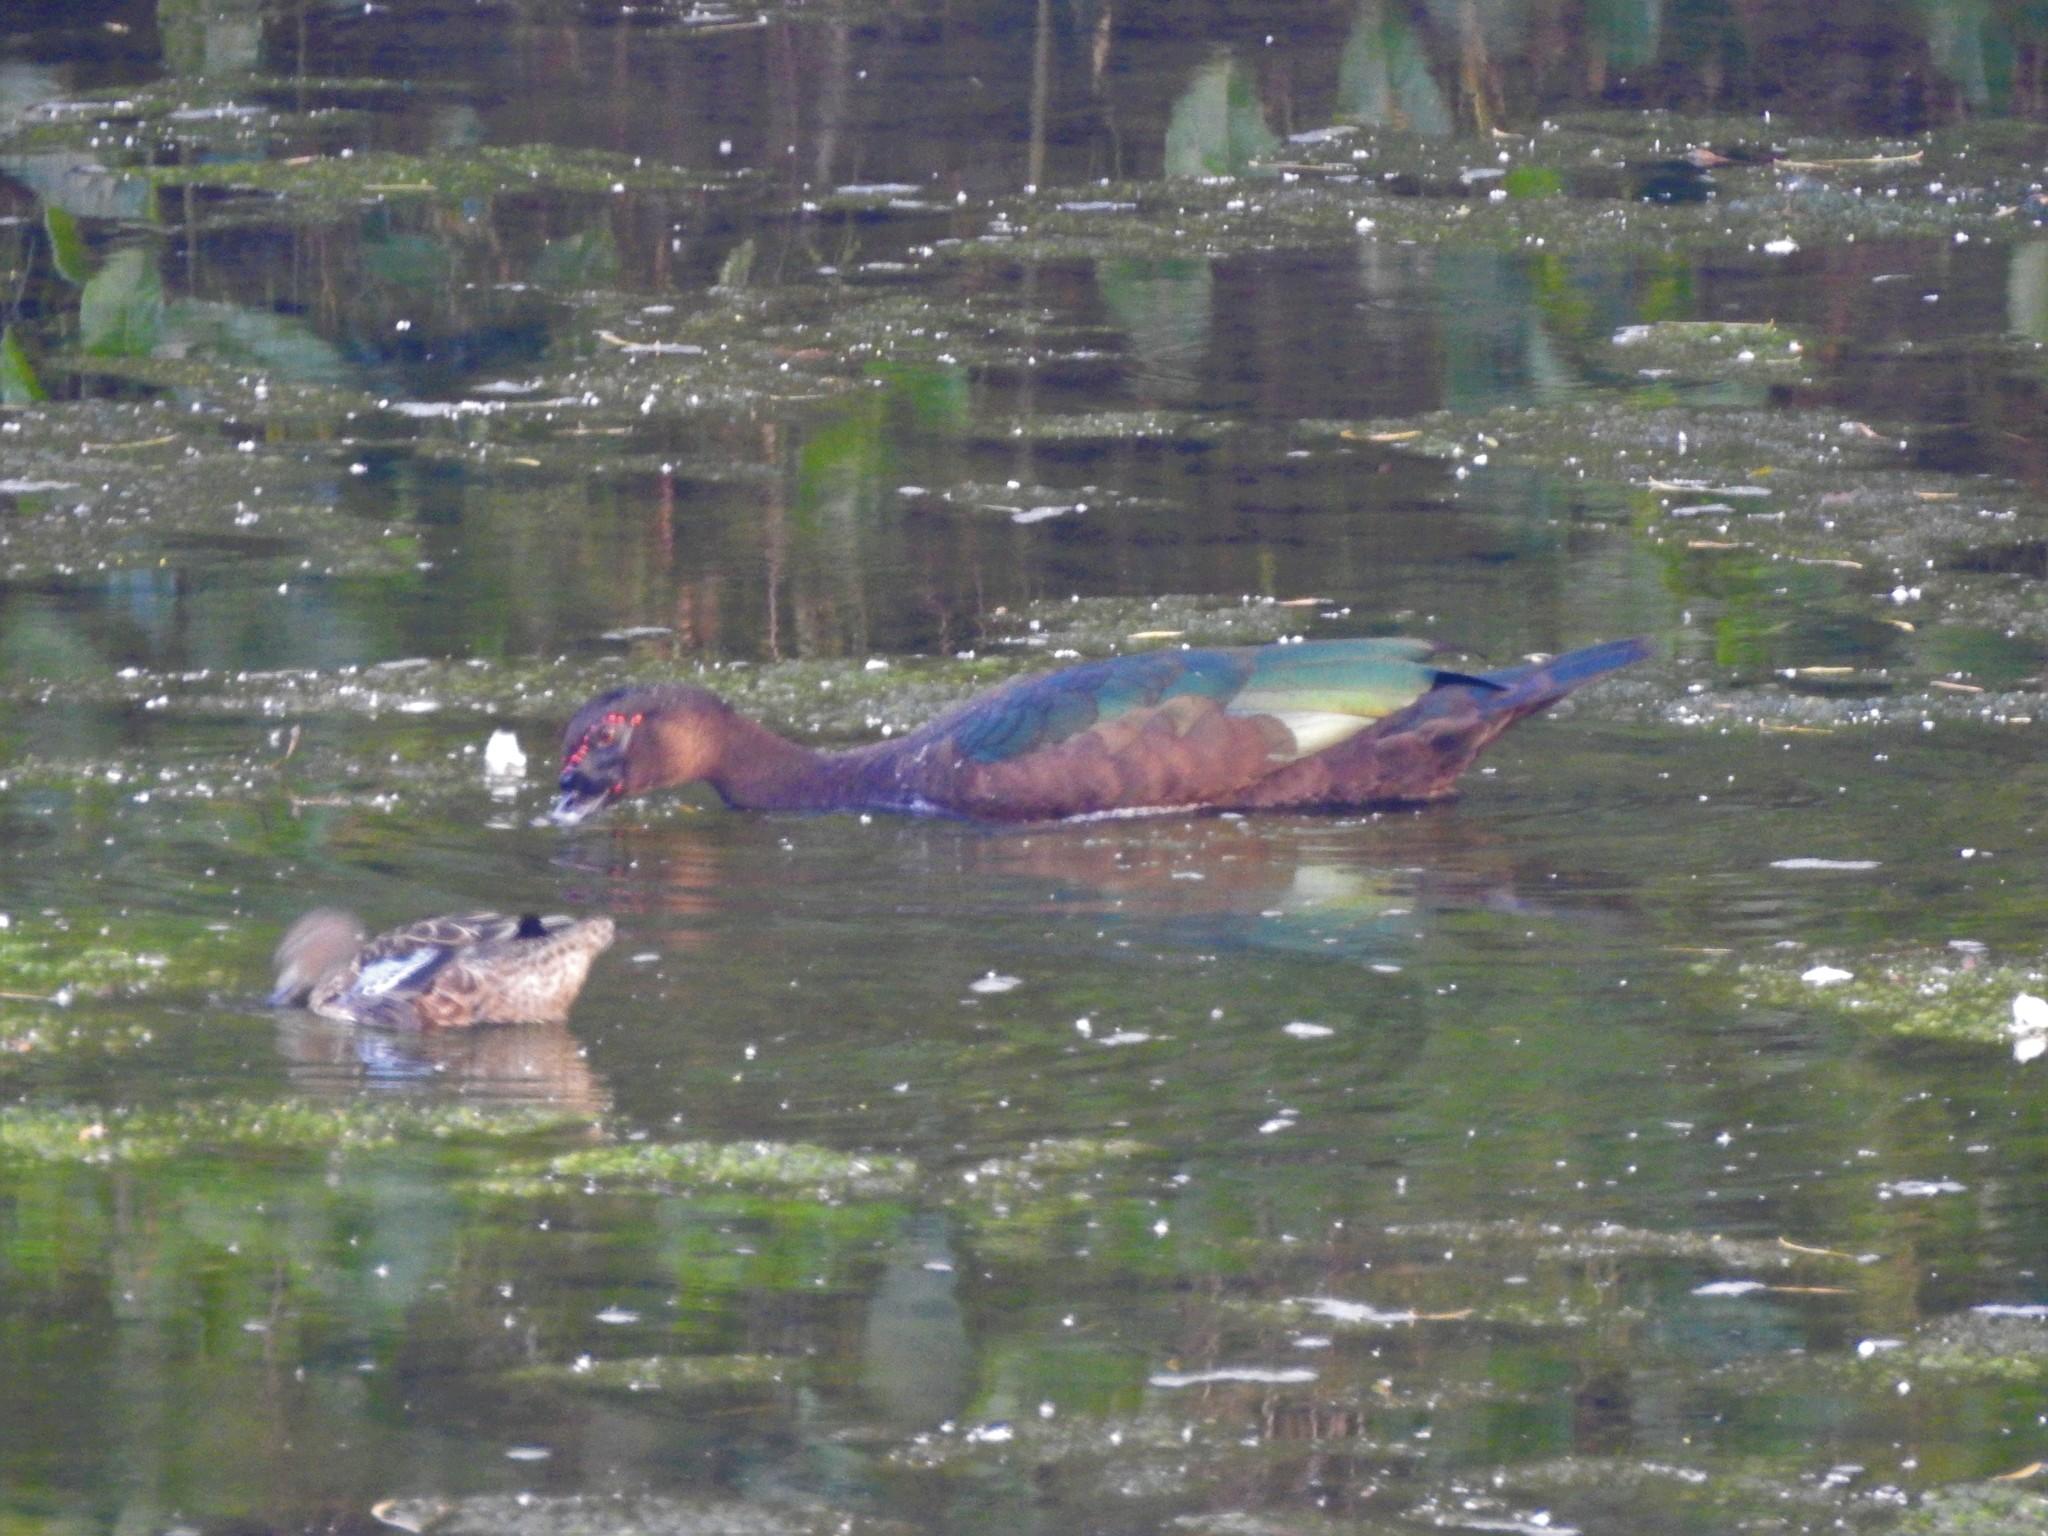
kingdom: Animalia
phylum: Chordata
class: Aves
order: Anseriformes
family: Anatidae
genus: Spatula
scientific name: Spatula discors
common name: Blue-winged teal
